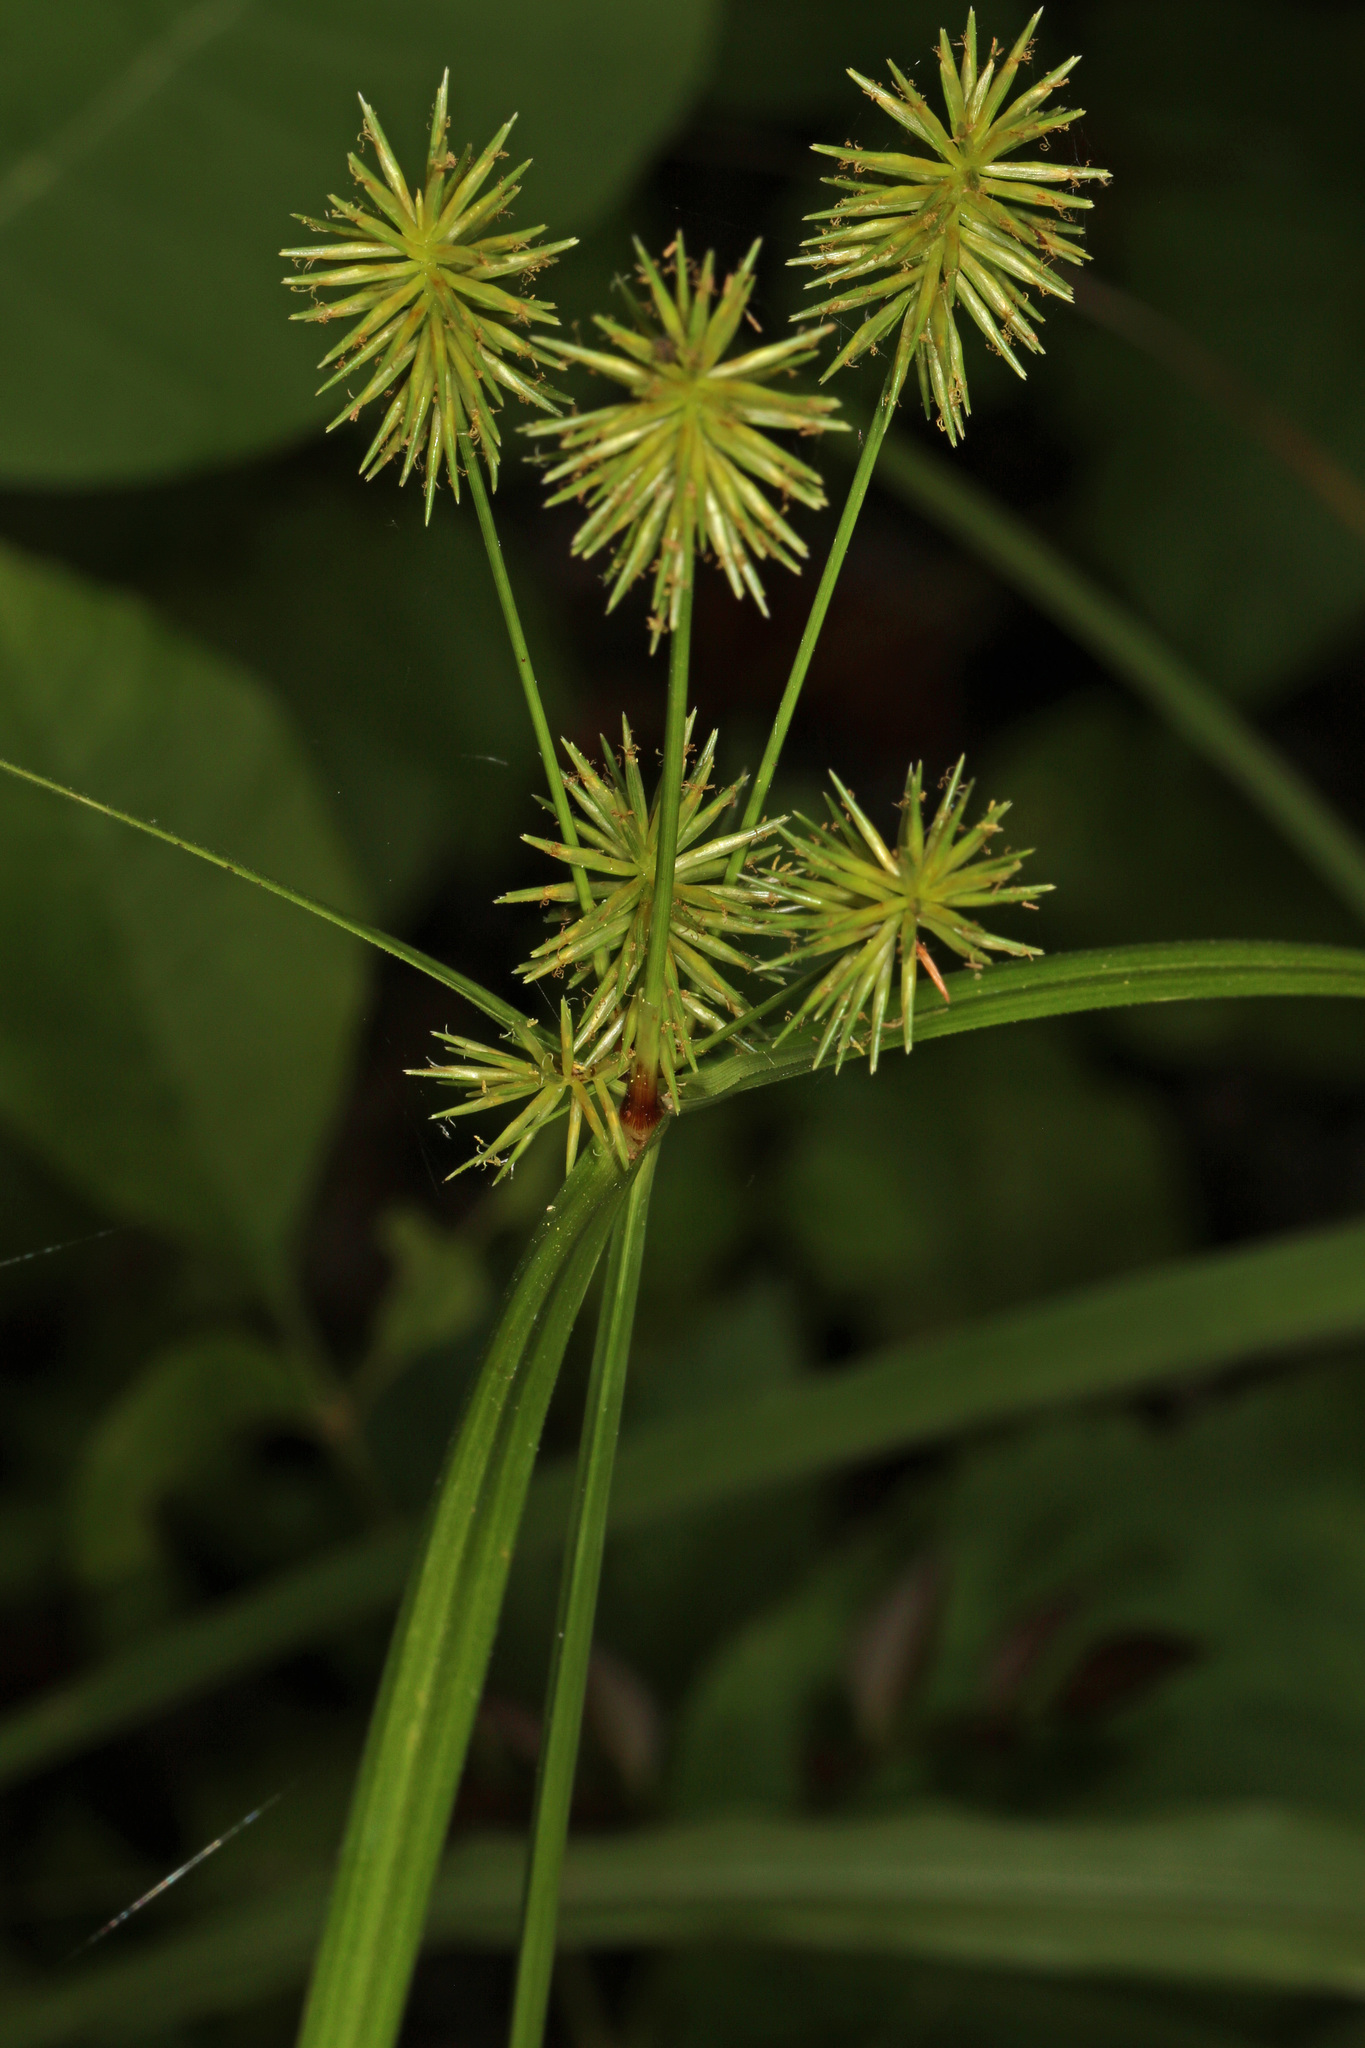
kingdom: Plantae
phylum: Tracheophyta
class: Liliopsida
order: Poales
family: Cyperaceae
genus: Cyperus
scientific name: Cyperus lancastriensis
